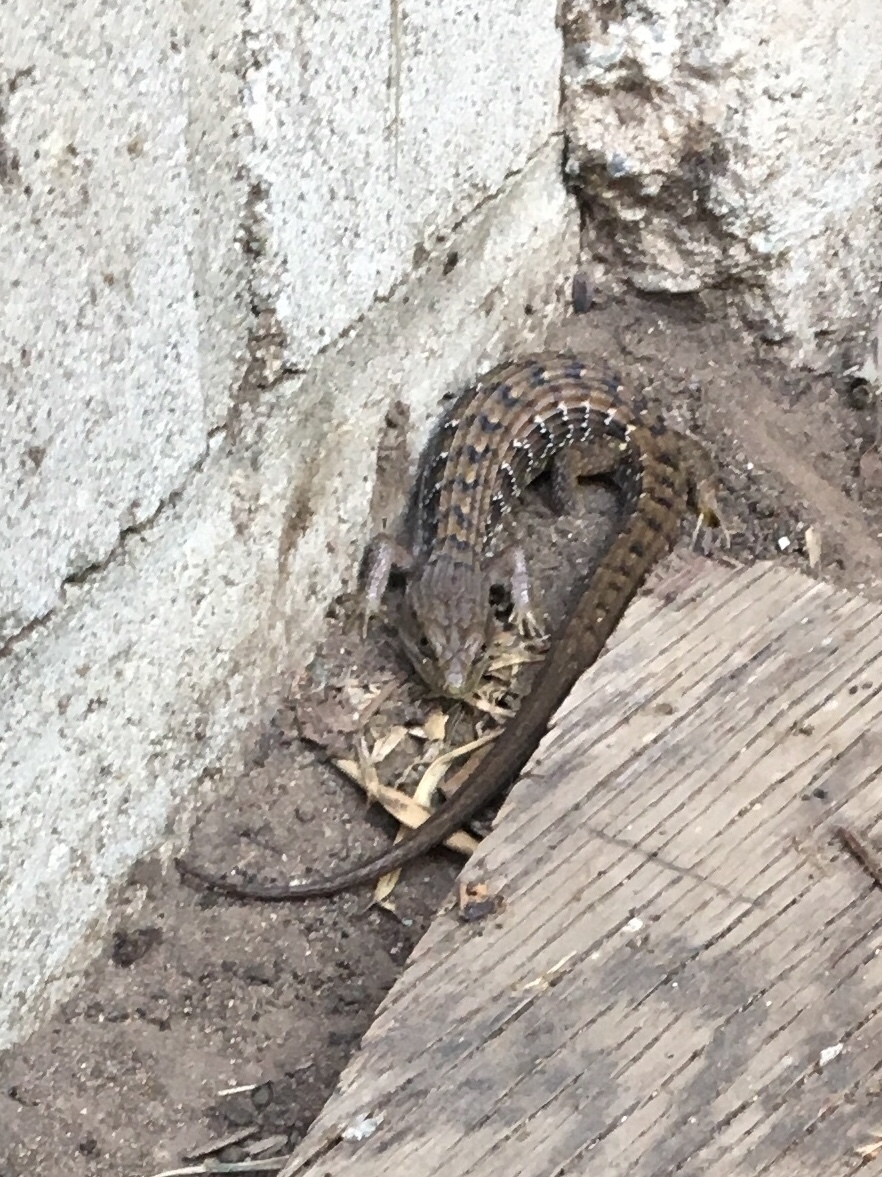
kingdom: Animalia
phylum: Chordata
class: Squamata
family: Anguidae
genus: Elgaria
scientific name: Elgaria multicarinata
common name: Southern alligator lizard
